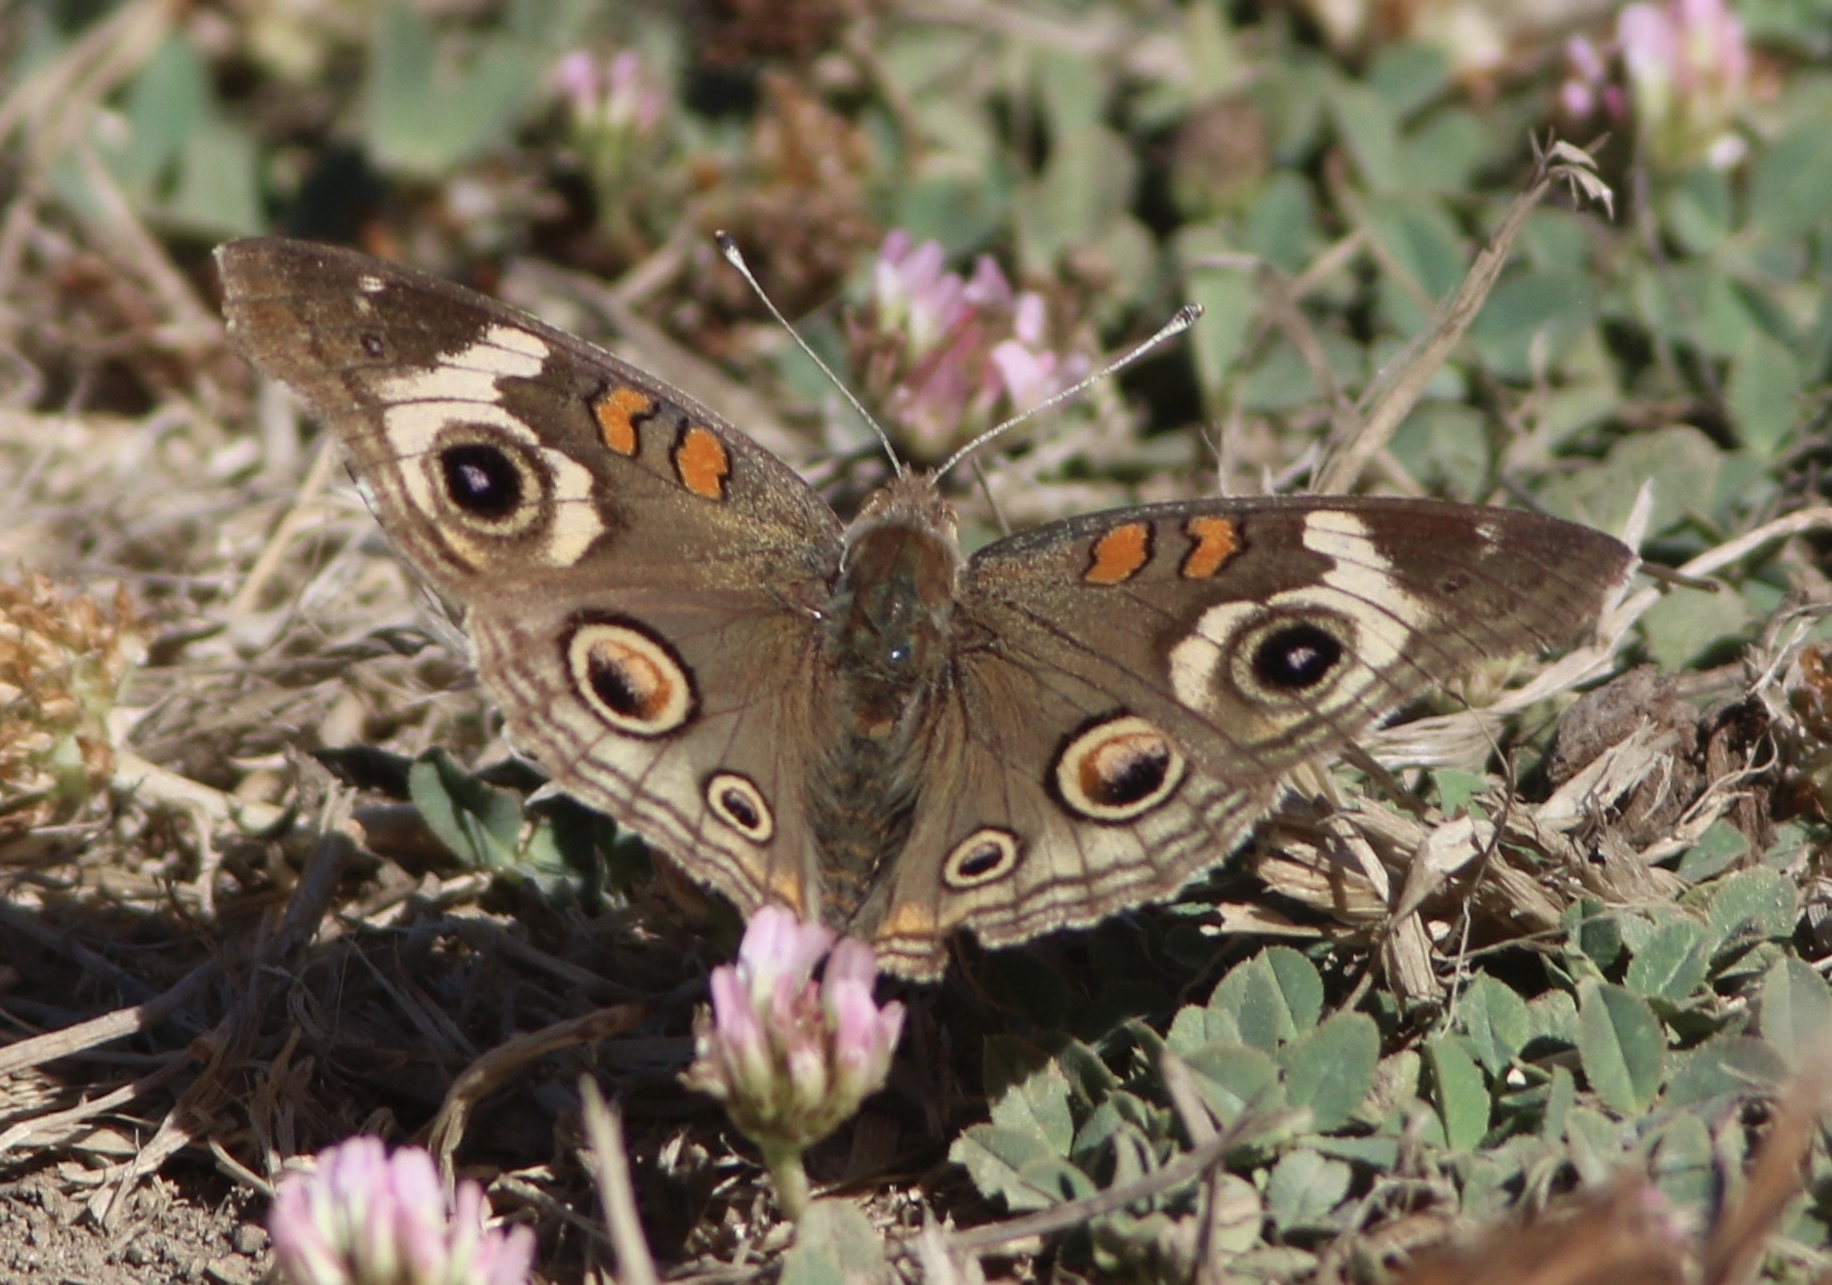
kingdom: Animalia
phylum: Arthropoda
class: Insecta
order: Lepidoptera
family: Nymphalidae
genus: Junonia
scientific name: Junonia grisea
